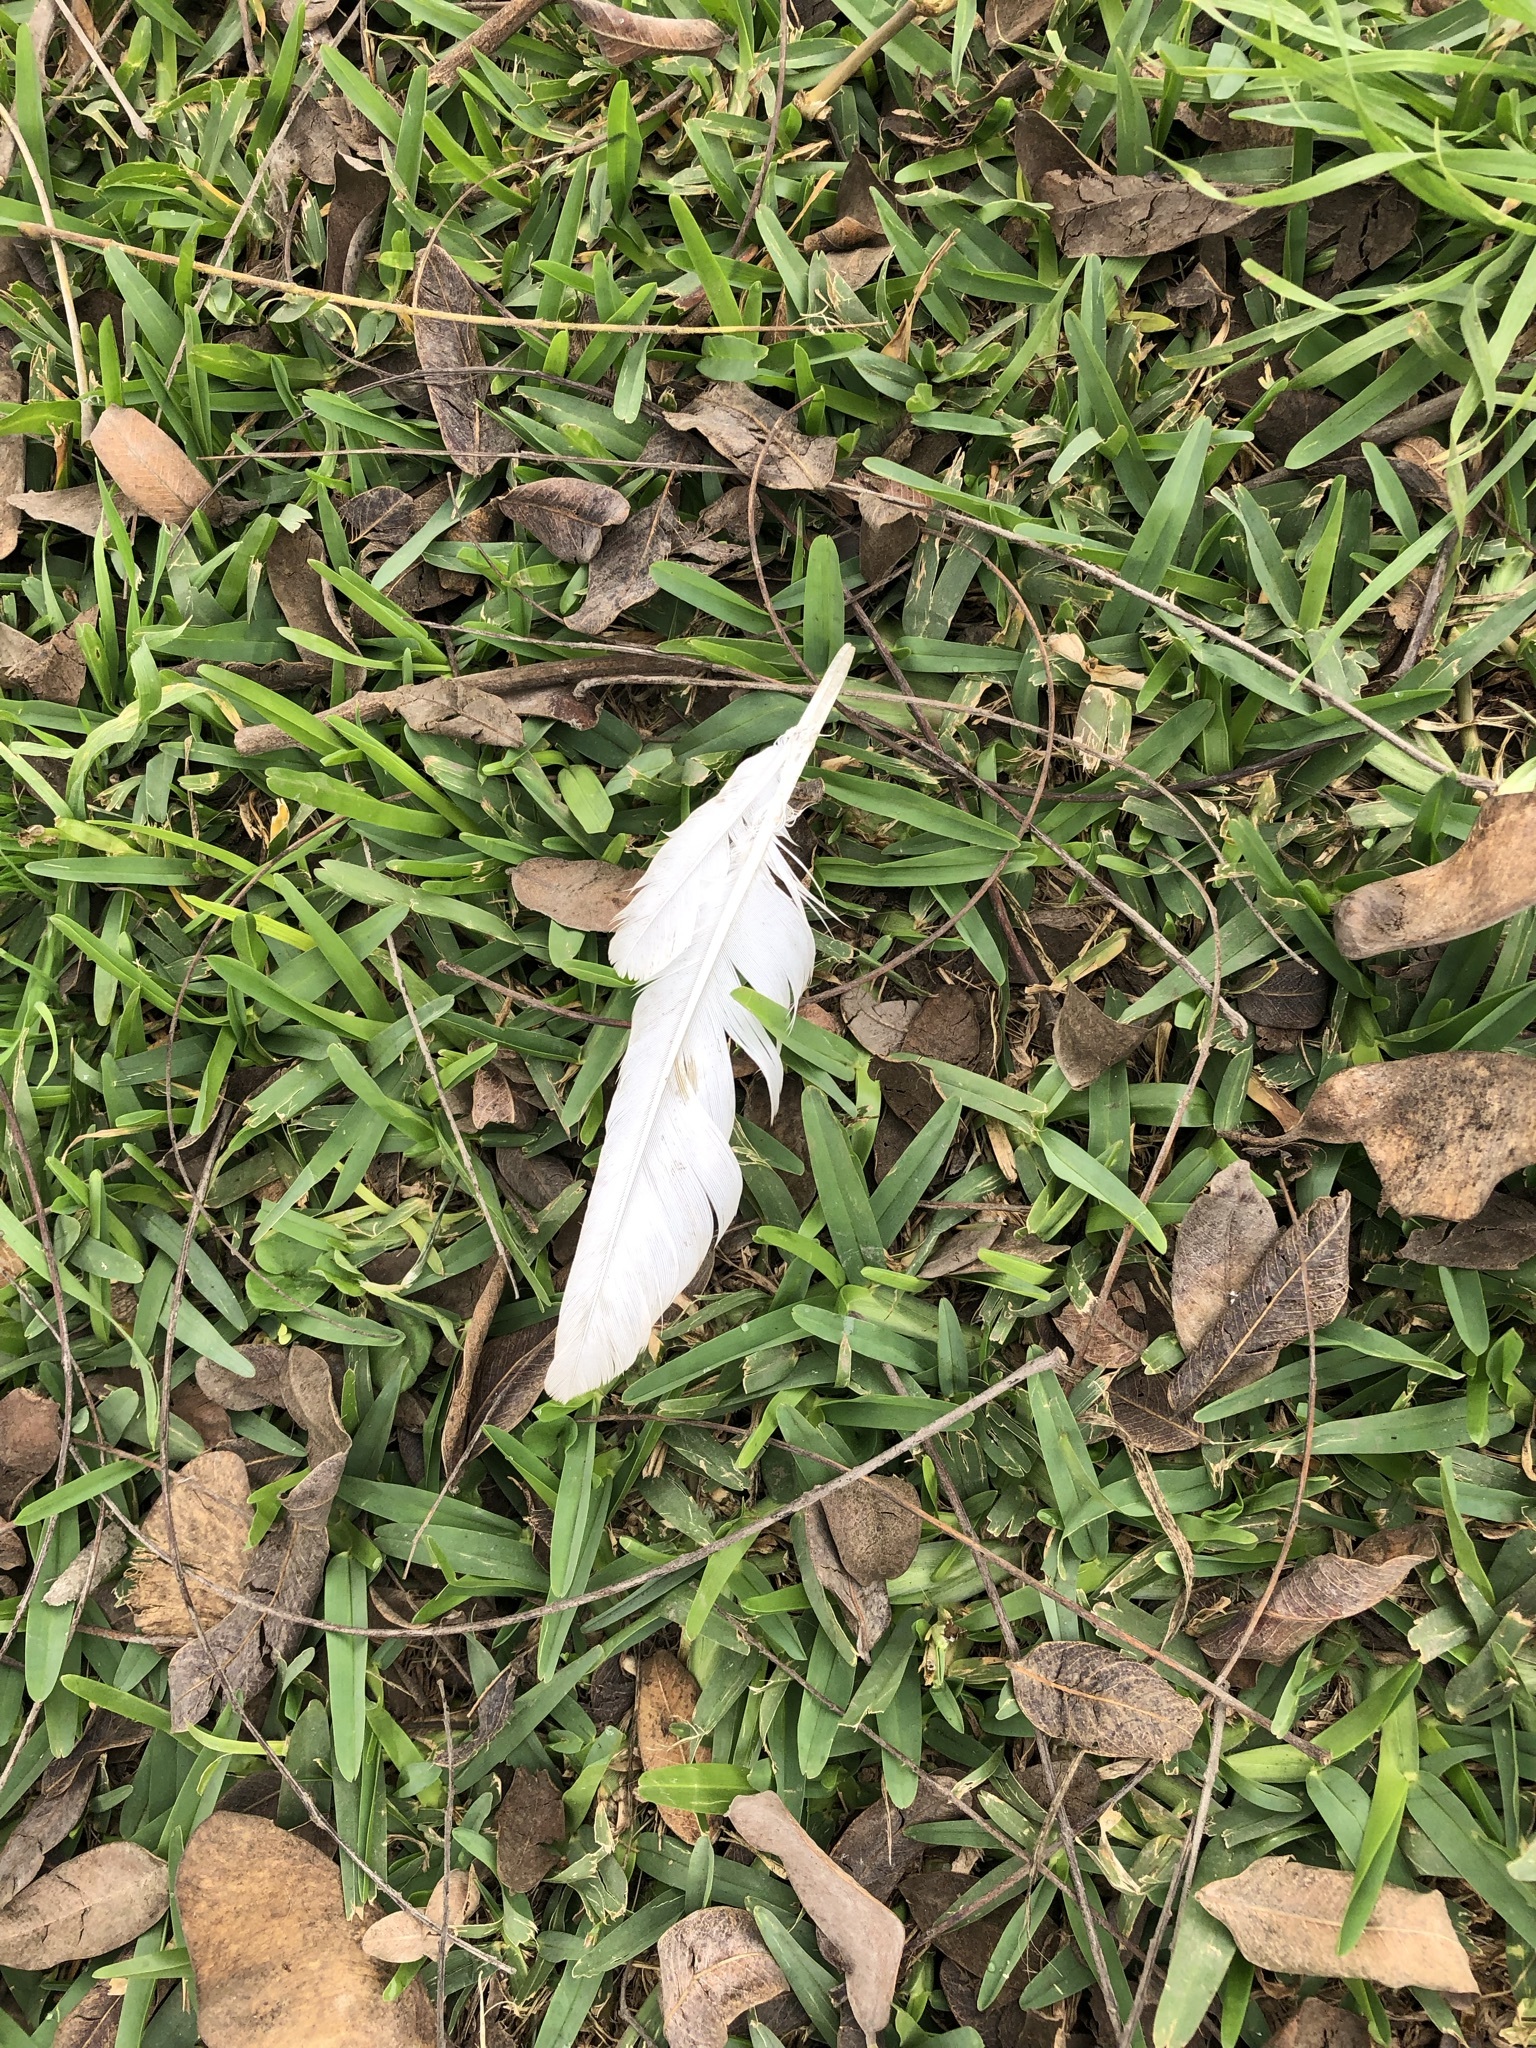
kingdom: Animalia
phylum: Chordata
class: Aves
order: Columbiformes
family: Columbidae
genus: Columba
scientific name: Columba livia
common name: Rock pigeon
